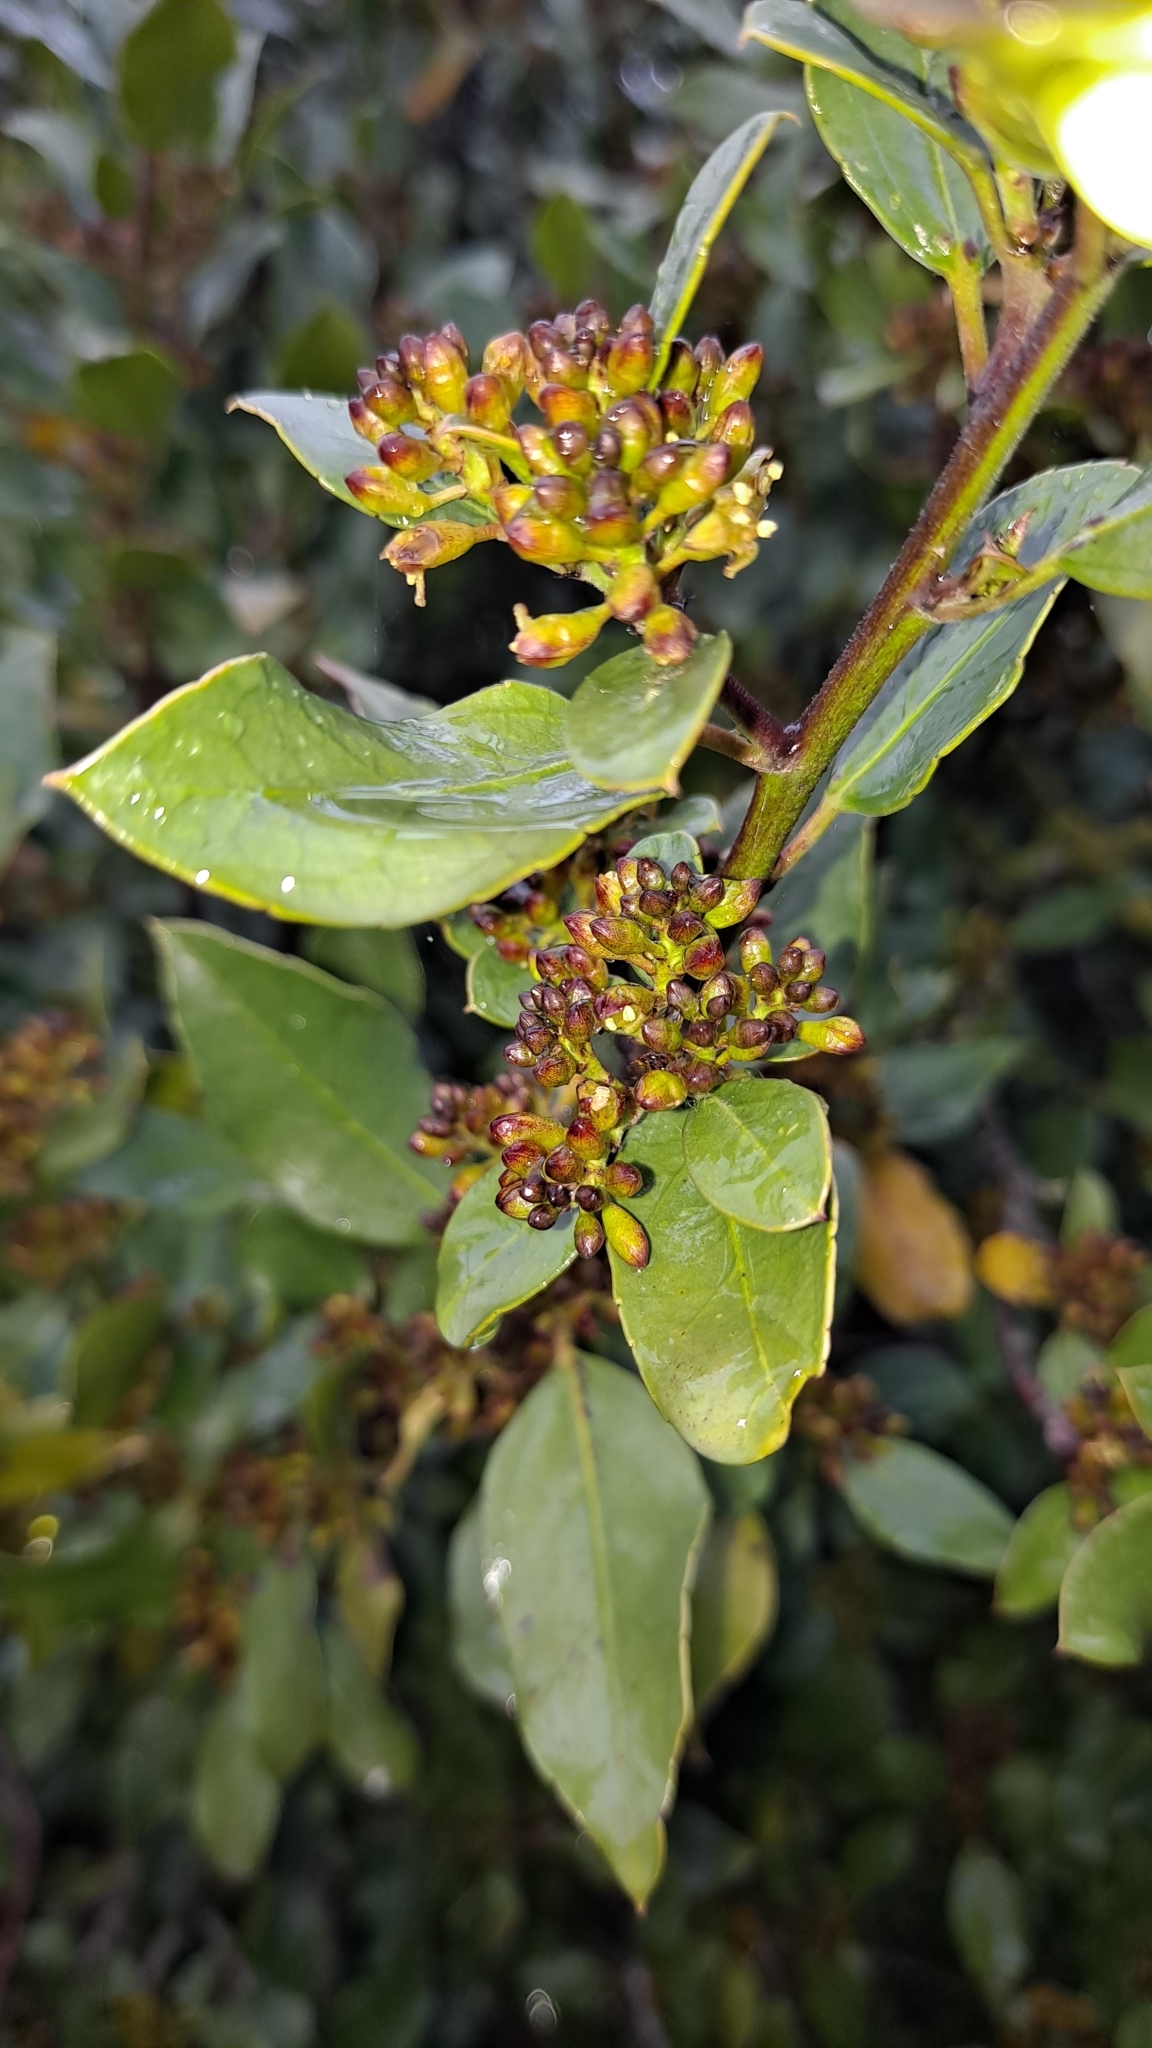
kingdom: Plantae
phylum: Tracheophyta
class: Magnoliopsida
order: Rosales
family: Rhamnaceae
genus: Rhamnus
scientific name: Rhamnus alaternus
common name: Mediterranean buckthorn
